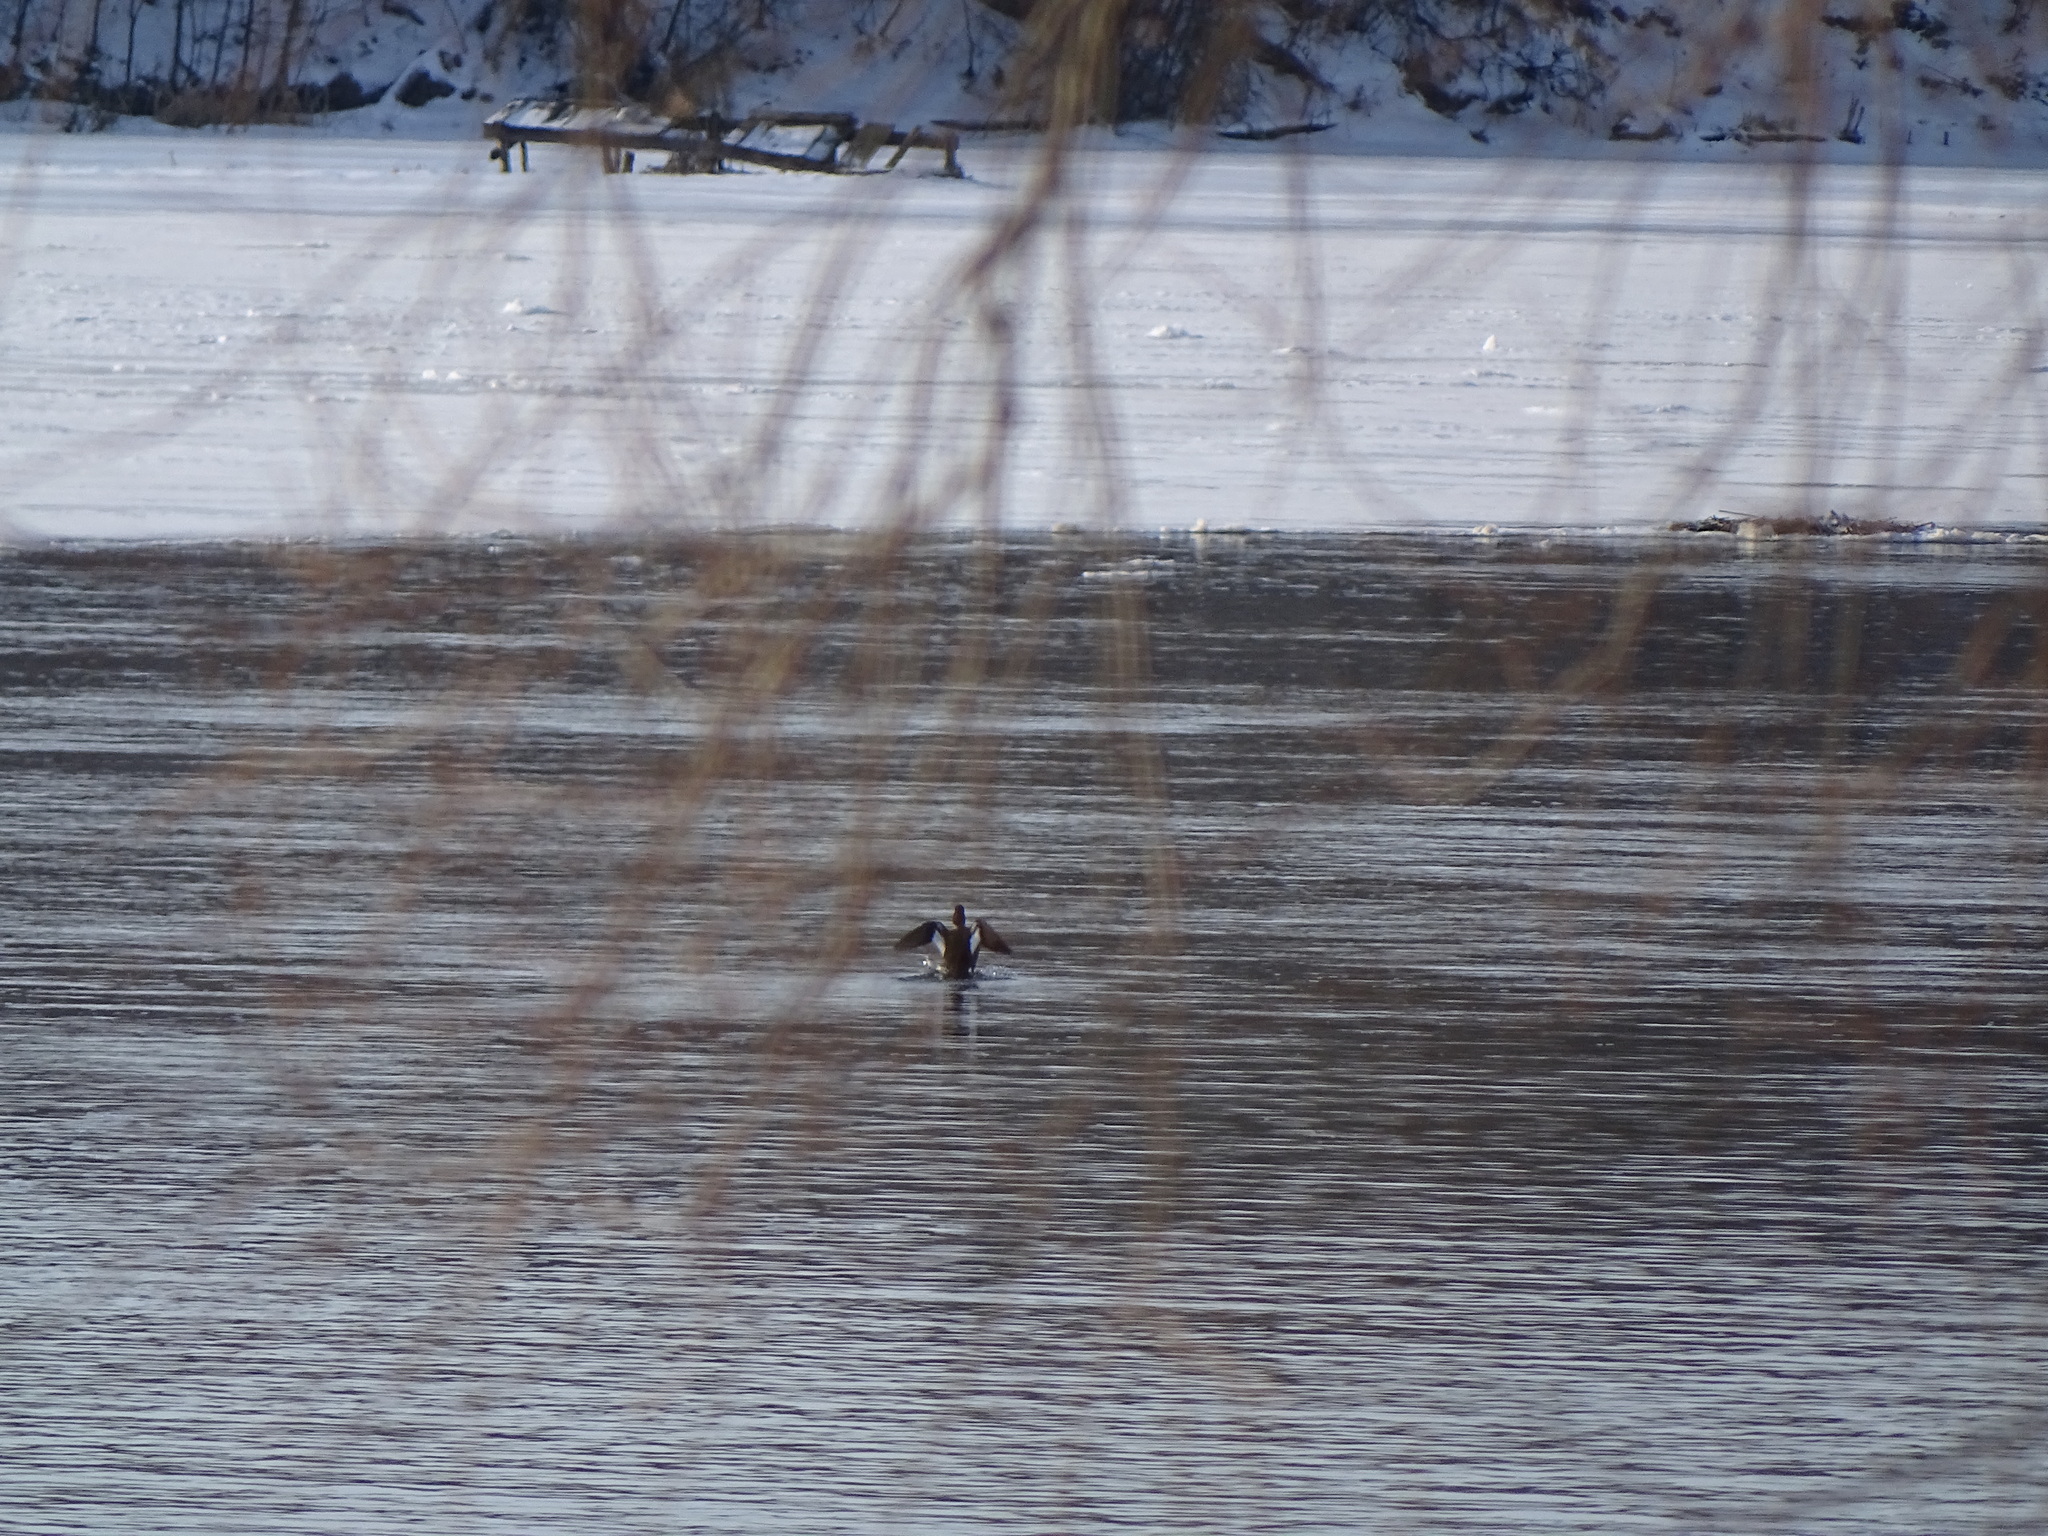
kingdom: Animalia
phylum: Chordata
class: Aves
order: Anseriformes
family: Anatidae
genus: Bucephala
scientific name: Bucephala clangula
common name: Common goldeneye
